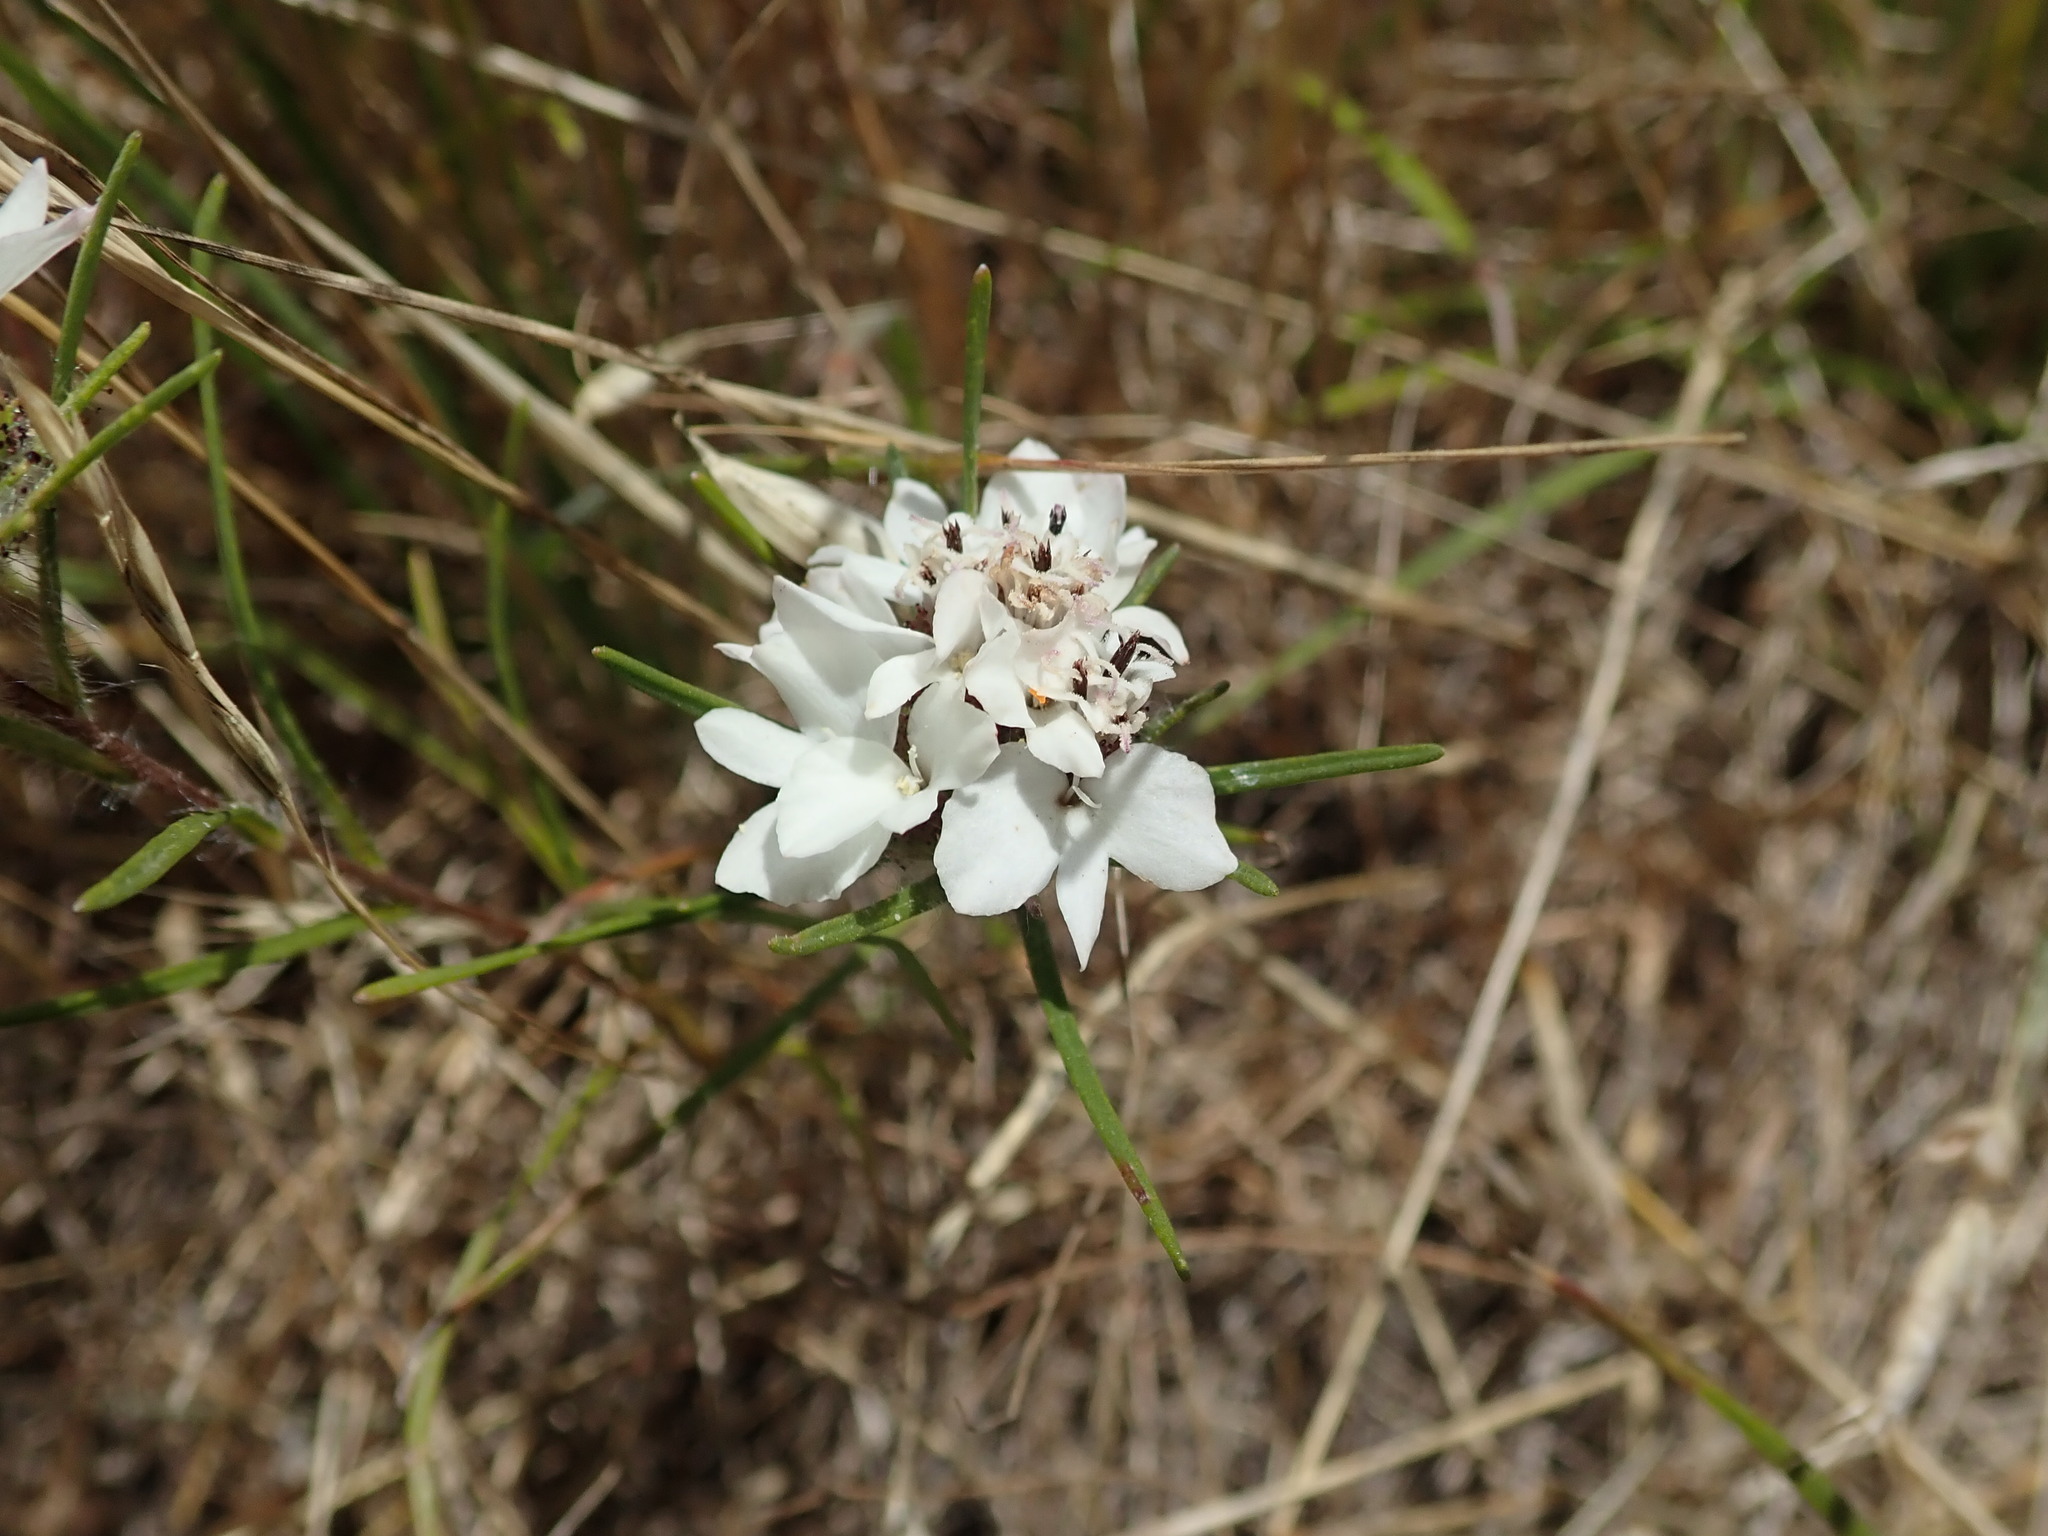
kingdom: Plantae
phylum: Tracheophyta
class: Magnoliopsida
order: Asterales
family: Asteraceae
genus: Calycadenia
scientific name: Calycadenia multiglandulosa
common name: Sticky calycadenia
